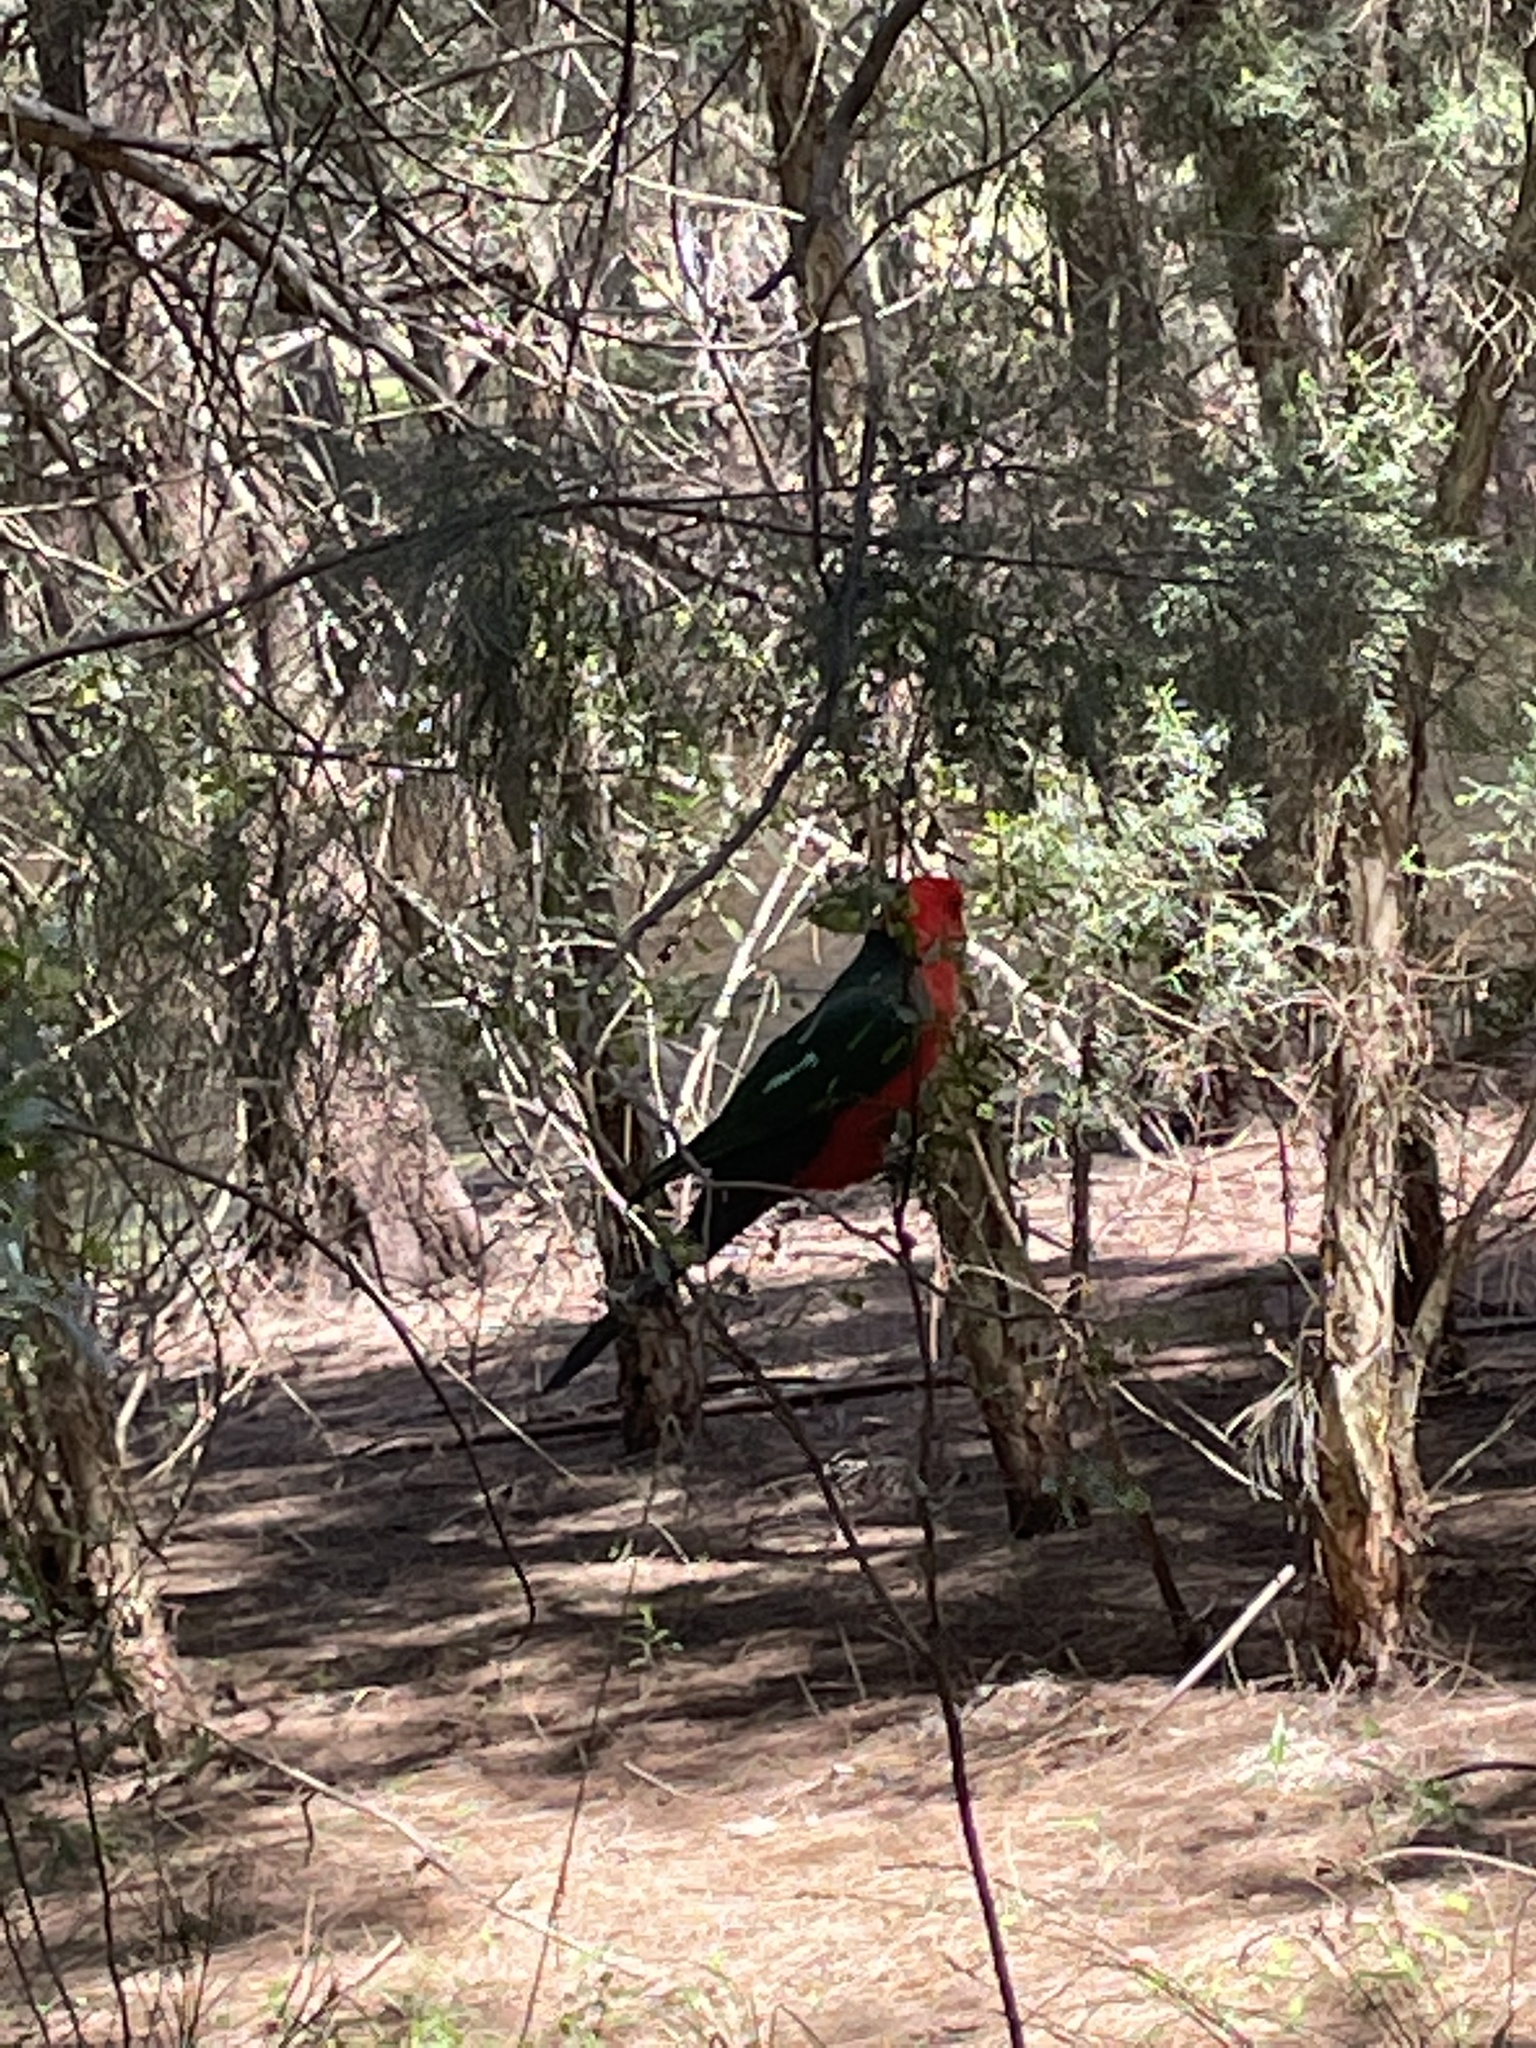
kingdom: Animalia
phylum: Chordata
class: Aves
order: Psittaciformes
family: Psittacidae
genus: Alisterus
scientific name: Alisterus scapularis
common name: Australian king parrot
